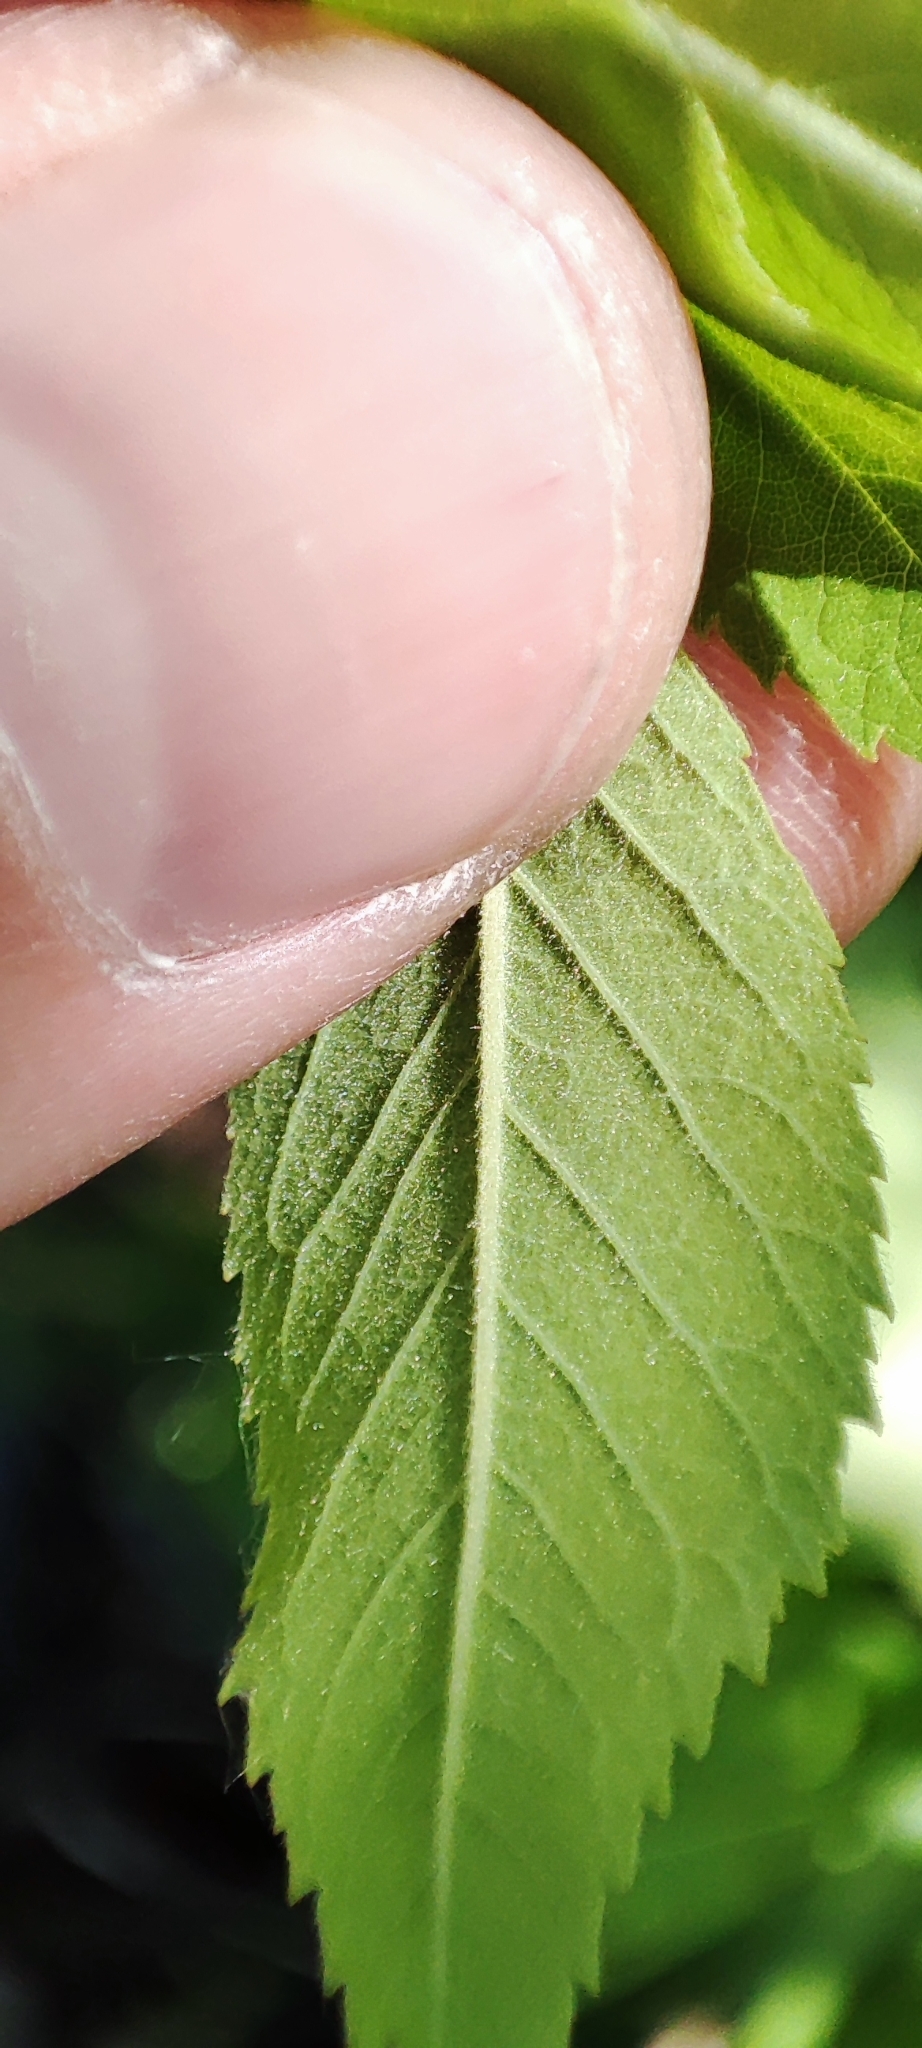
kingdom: Plantae
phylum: Tracheophyta
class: Magnoliopsida
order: Rosales
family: Rosaceae
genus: Rosa
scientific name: Rosa majalis
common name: Cinnamon rose
